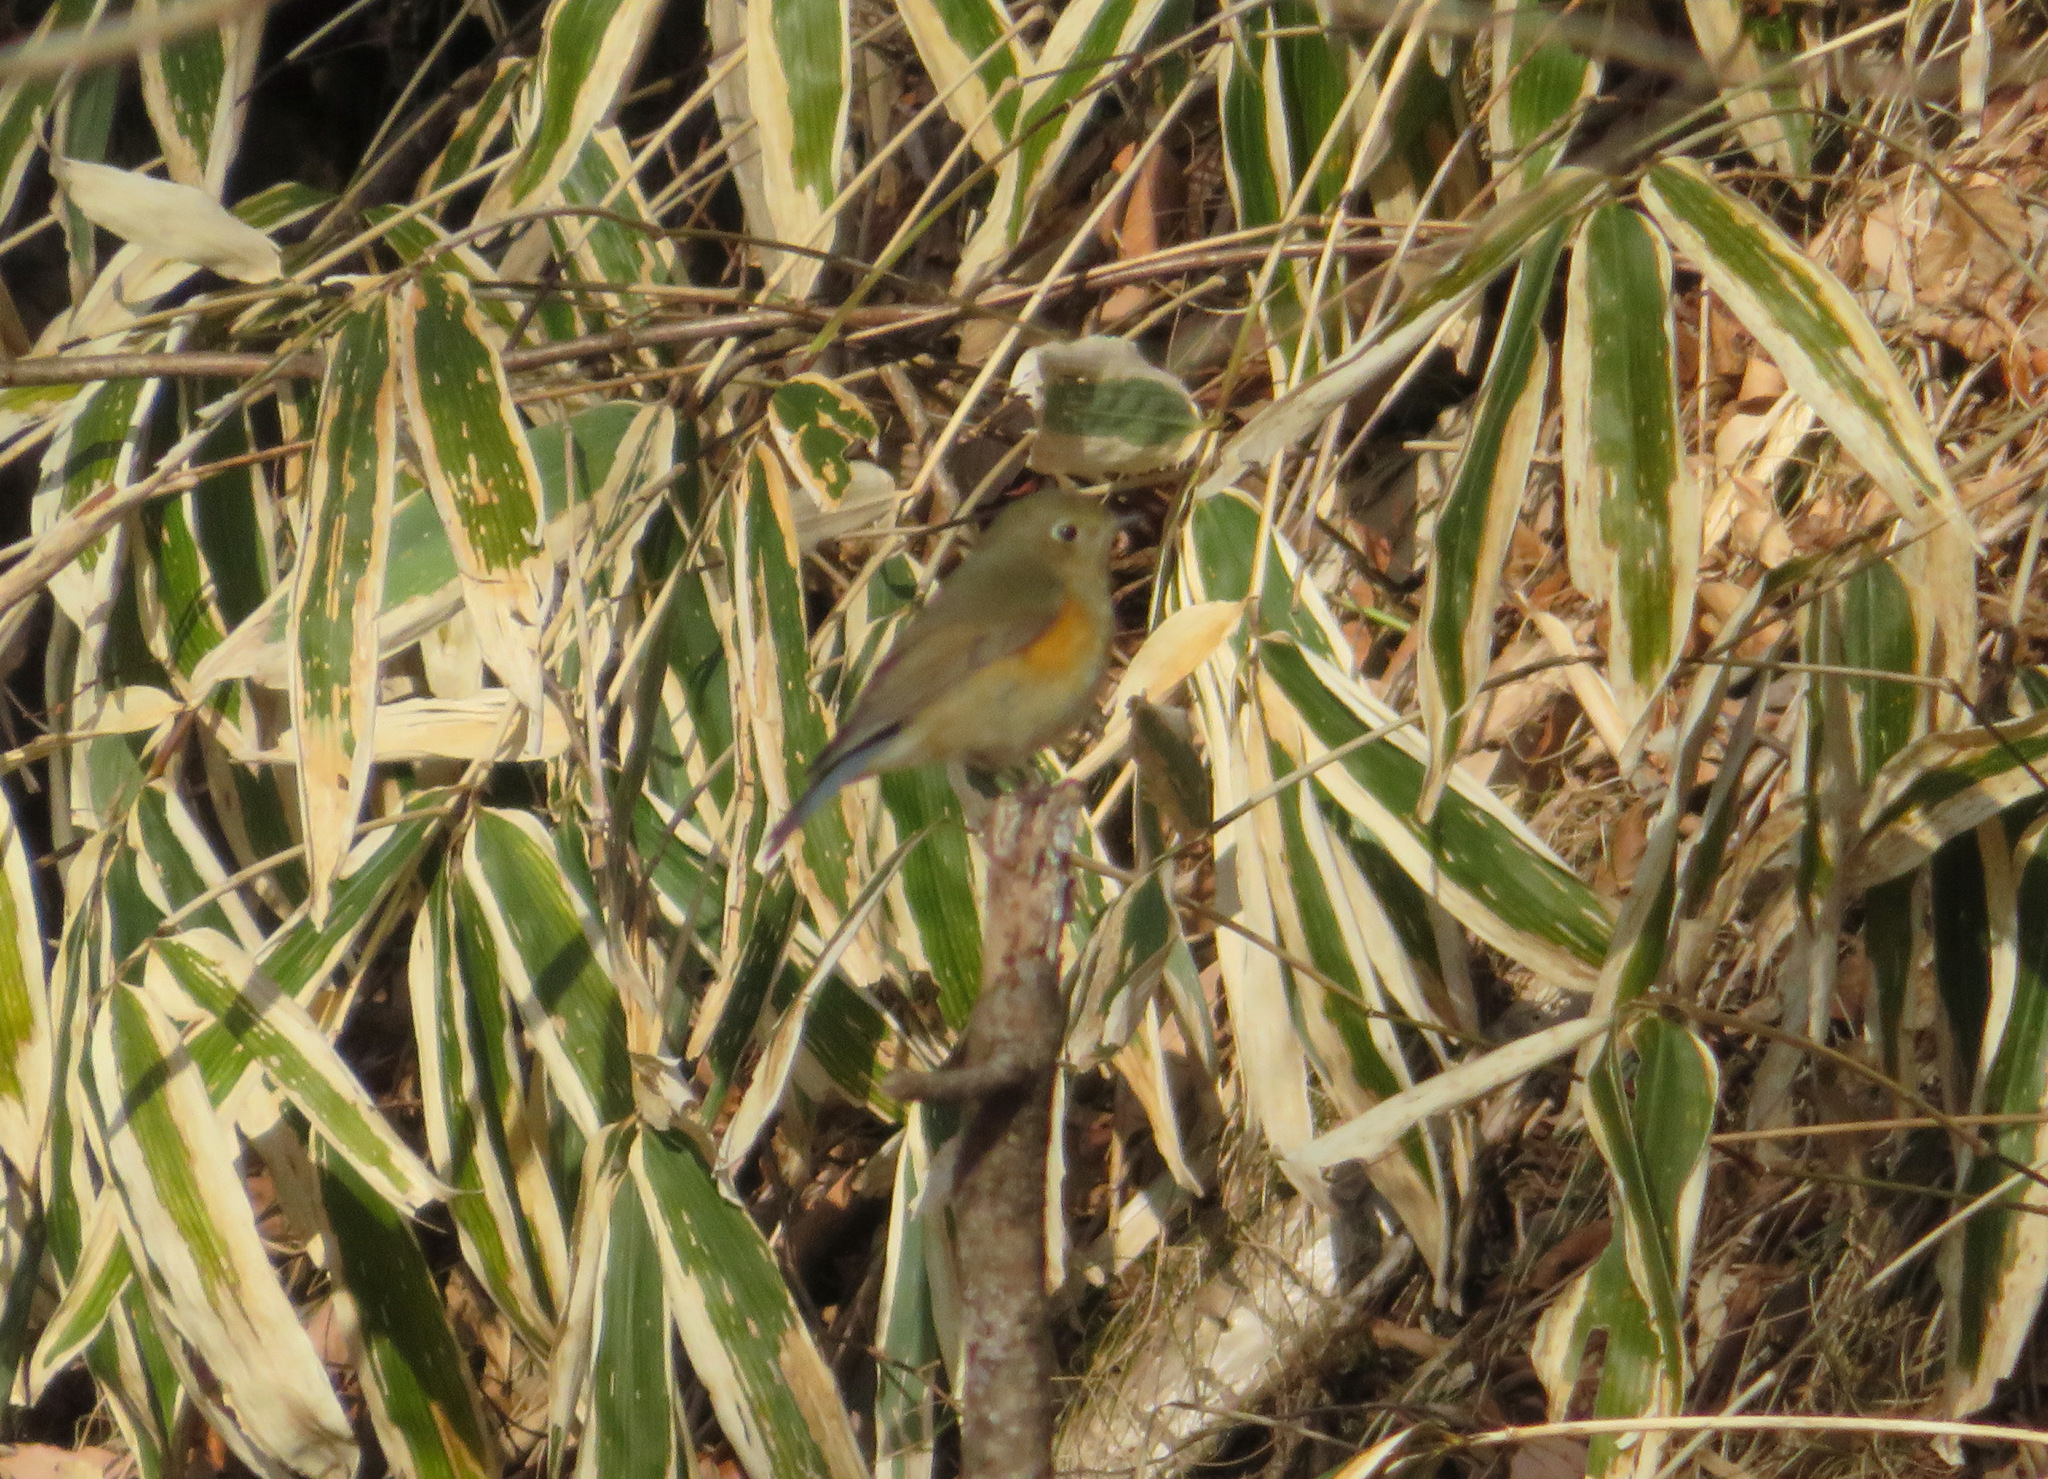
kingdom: Animalia
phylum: Chordata
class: Aves
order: Passeriformes
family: Muscicapidae
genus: Tarsiger
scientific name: Tarsiger cyanurus
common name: Red-flanked bluetail
